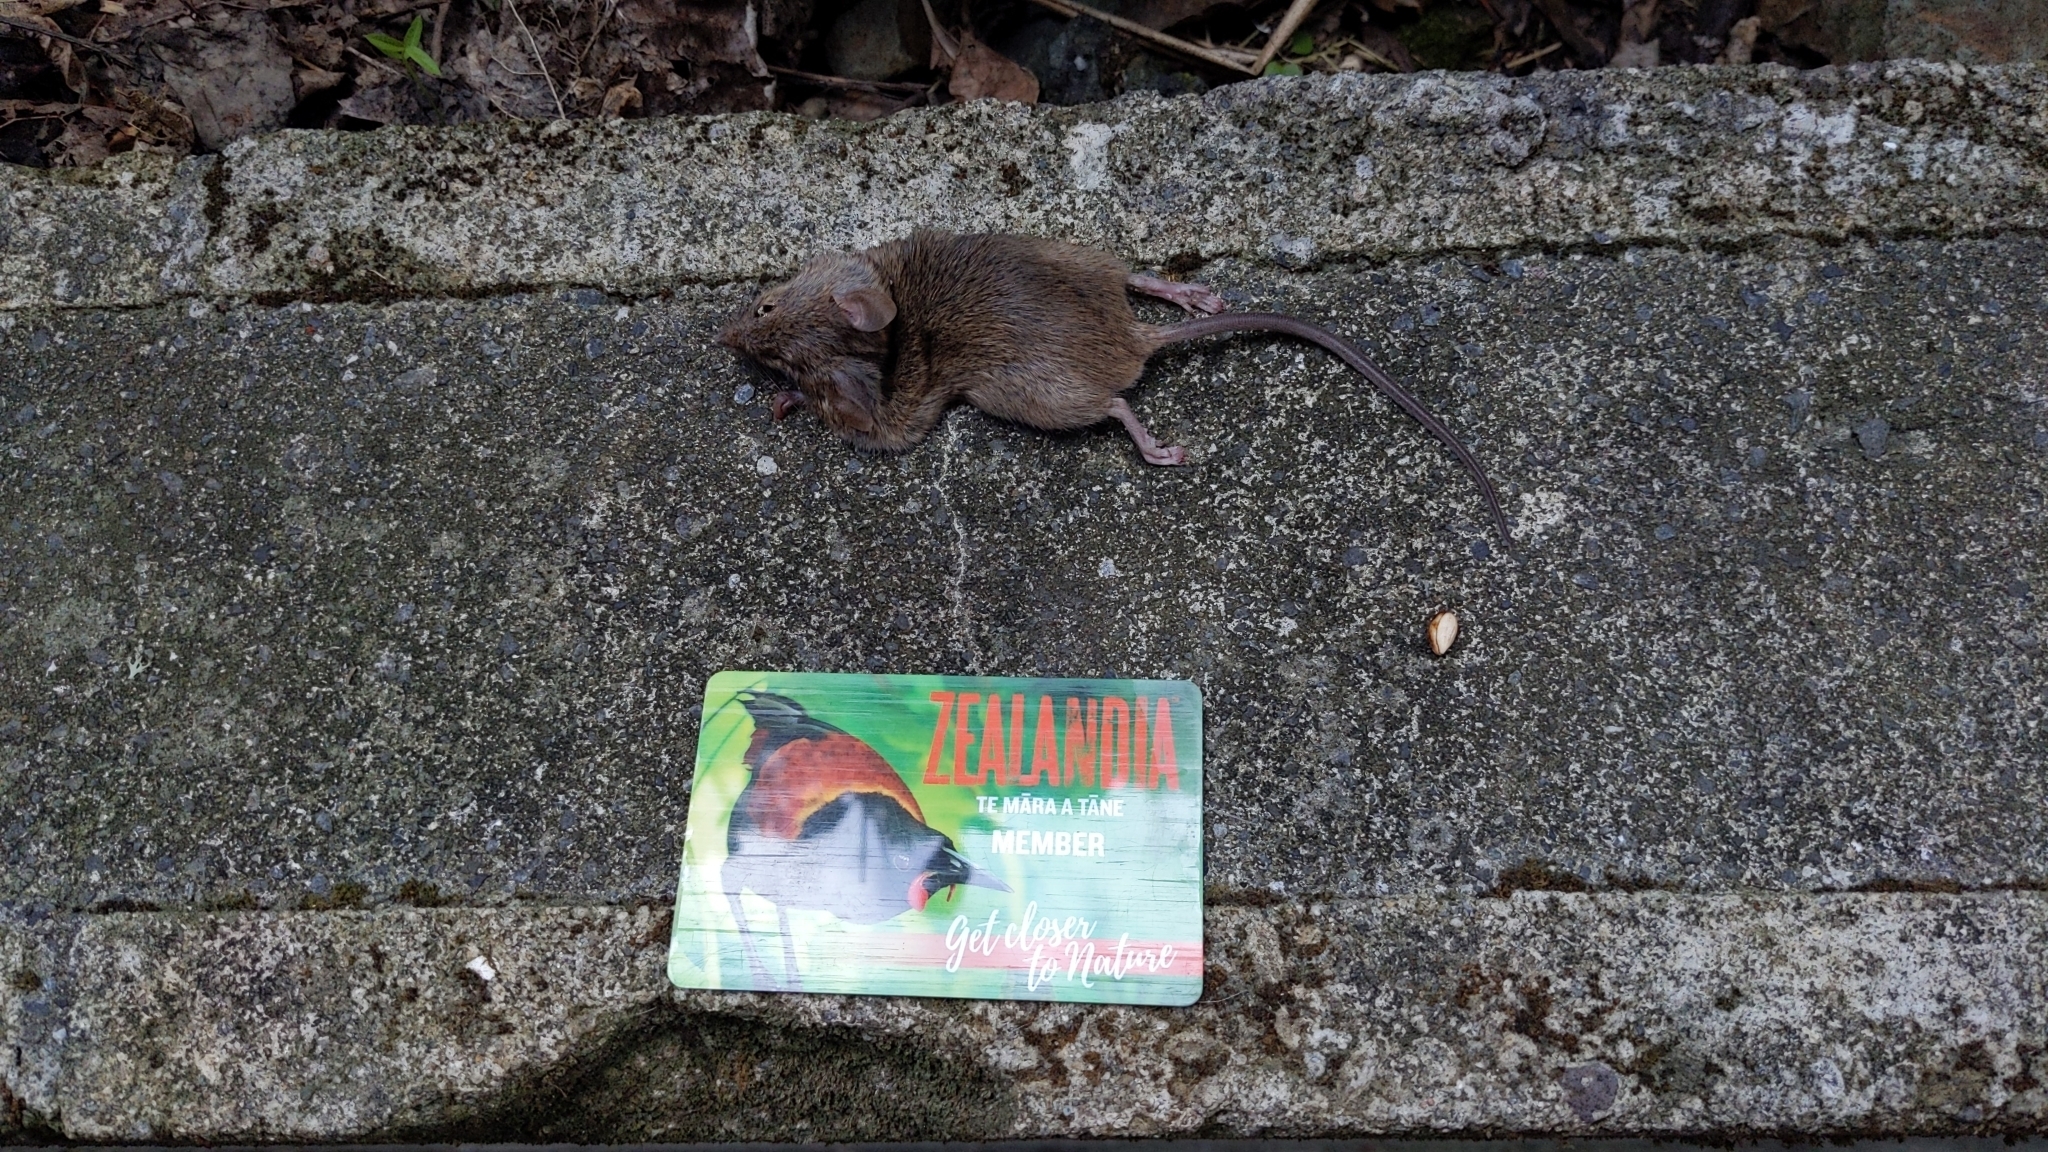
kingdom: Animalia
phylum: Chordata
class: Mammalia
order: Rodentia
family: Muridae
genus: Mus
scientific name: Mus musculus
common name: House mouse
